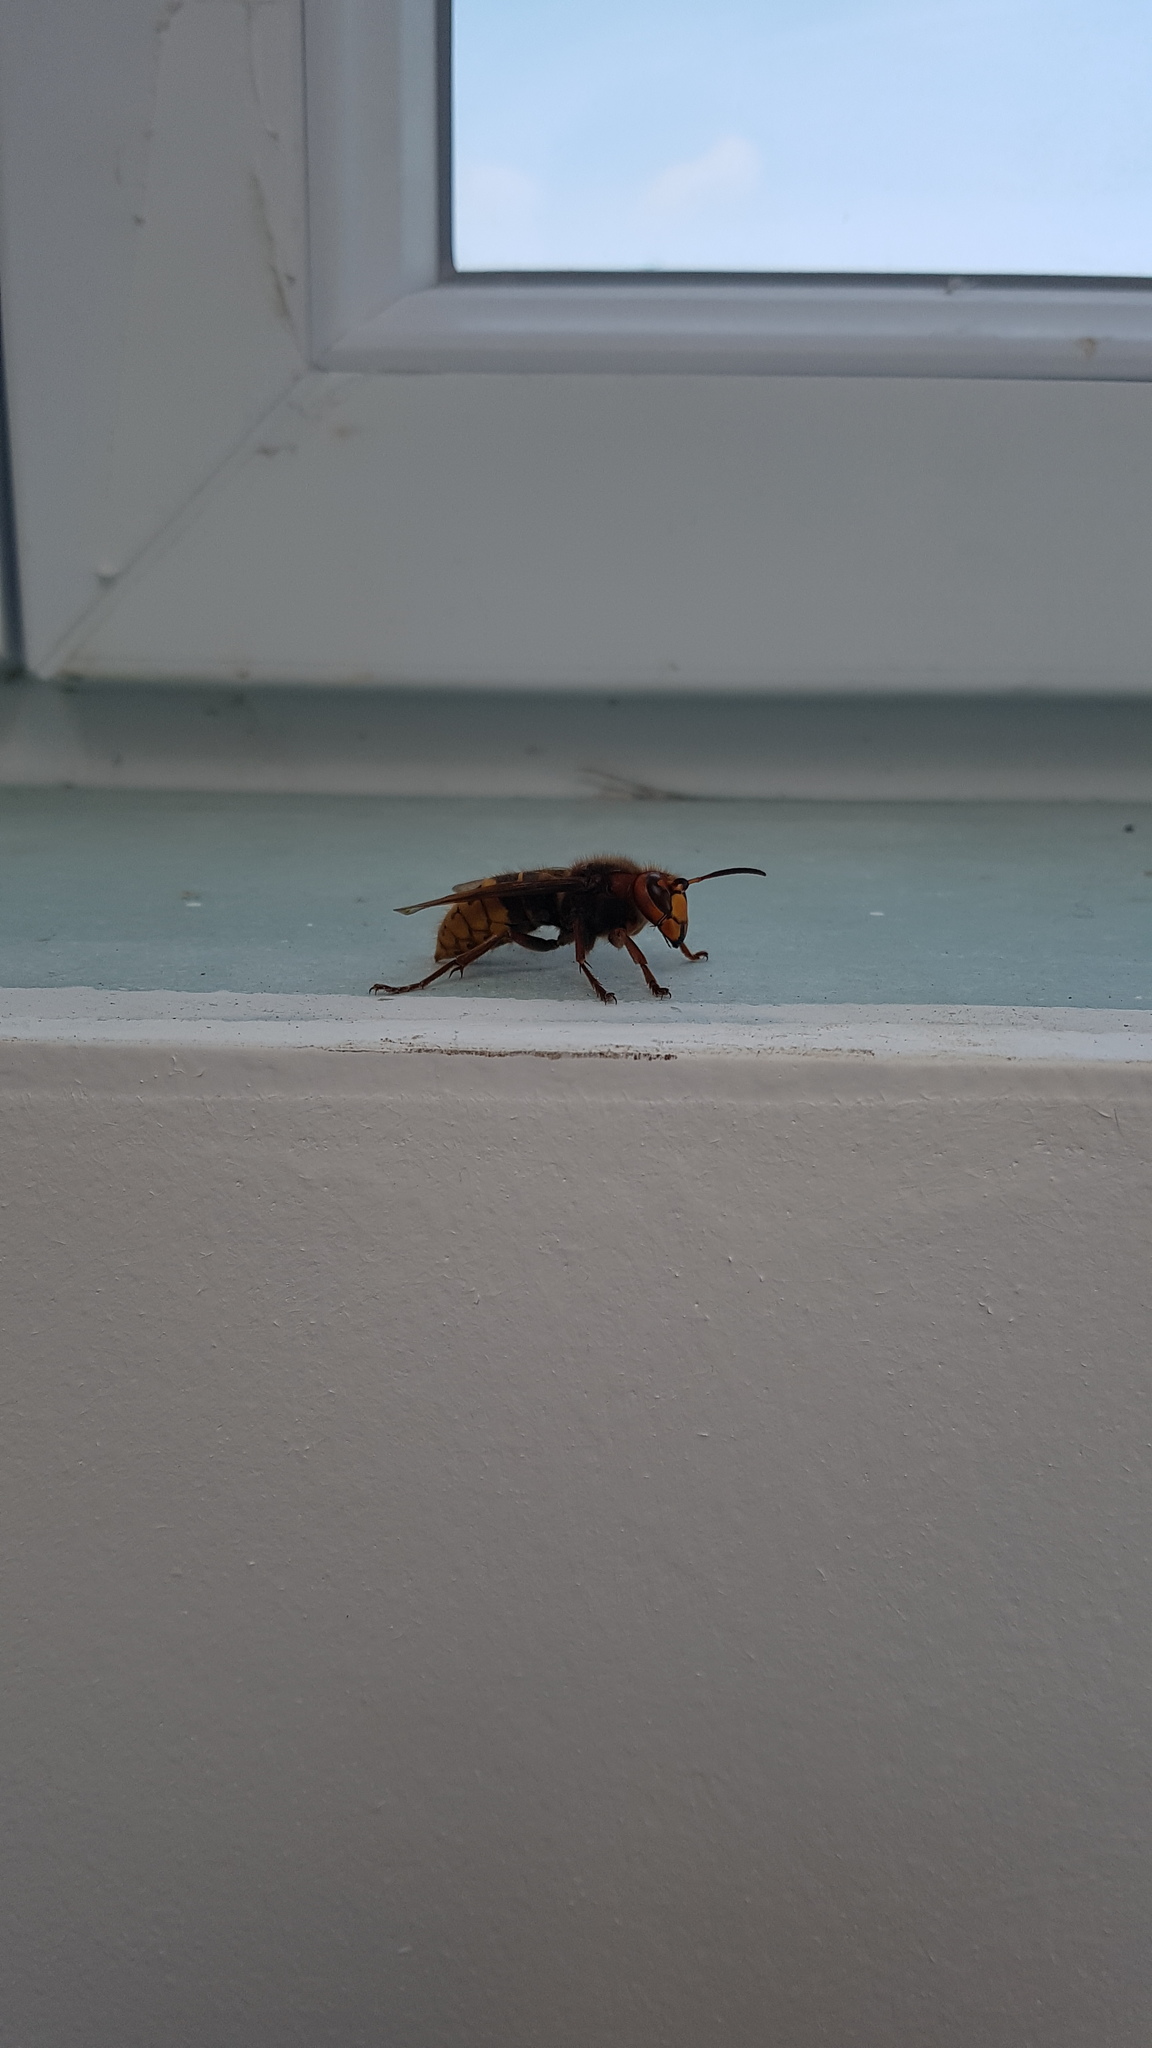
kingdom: Animalia
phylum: Arthropoda
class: Insecta
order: Hymenoptera
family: Vespidae
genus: Vespa
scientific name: Vespa crabro
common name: Hornet
